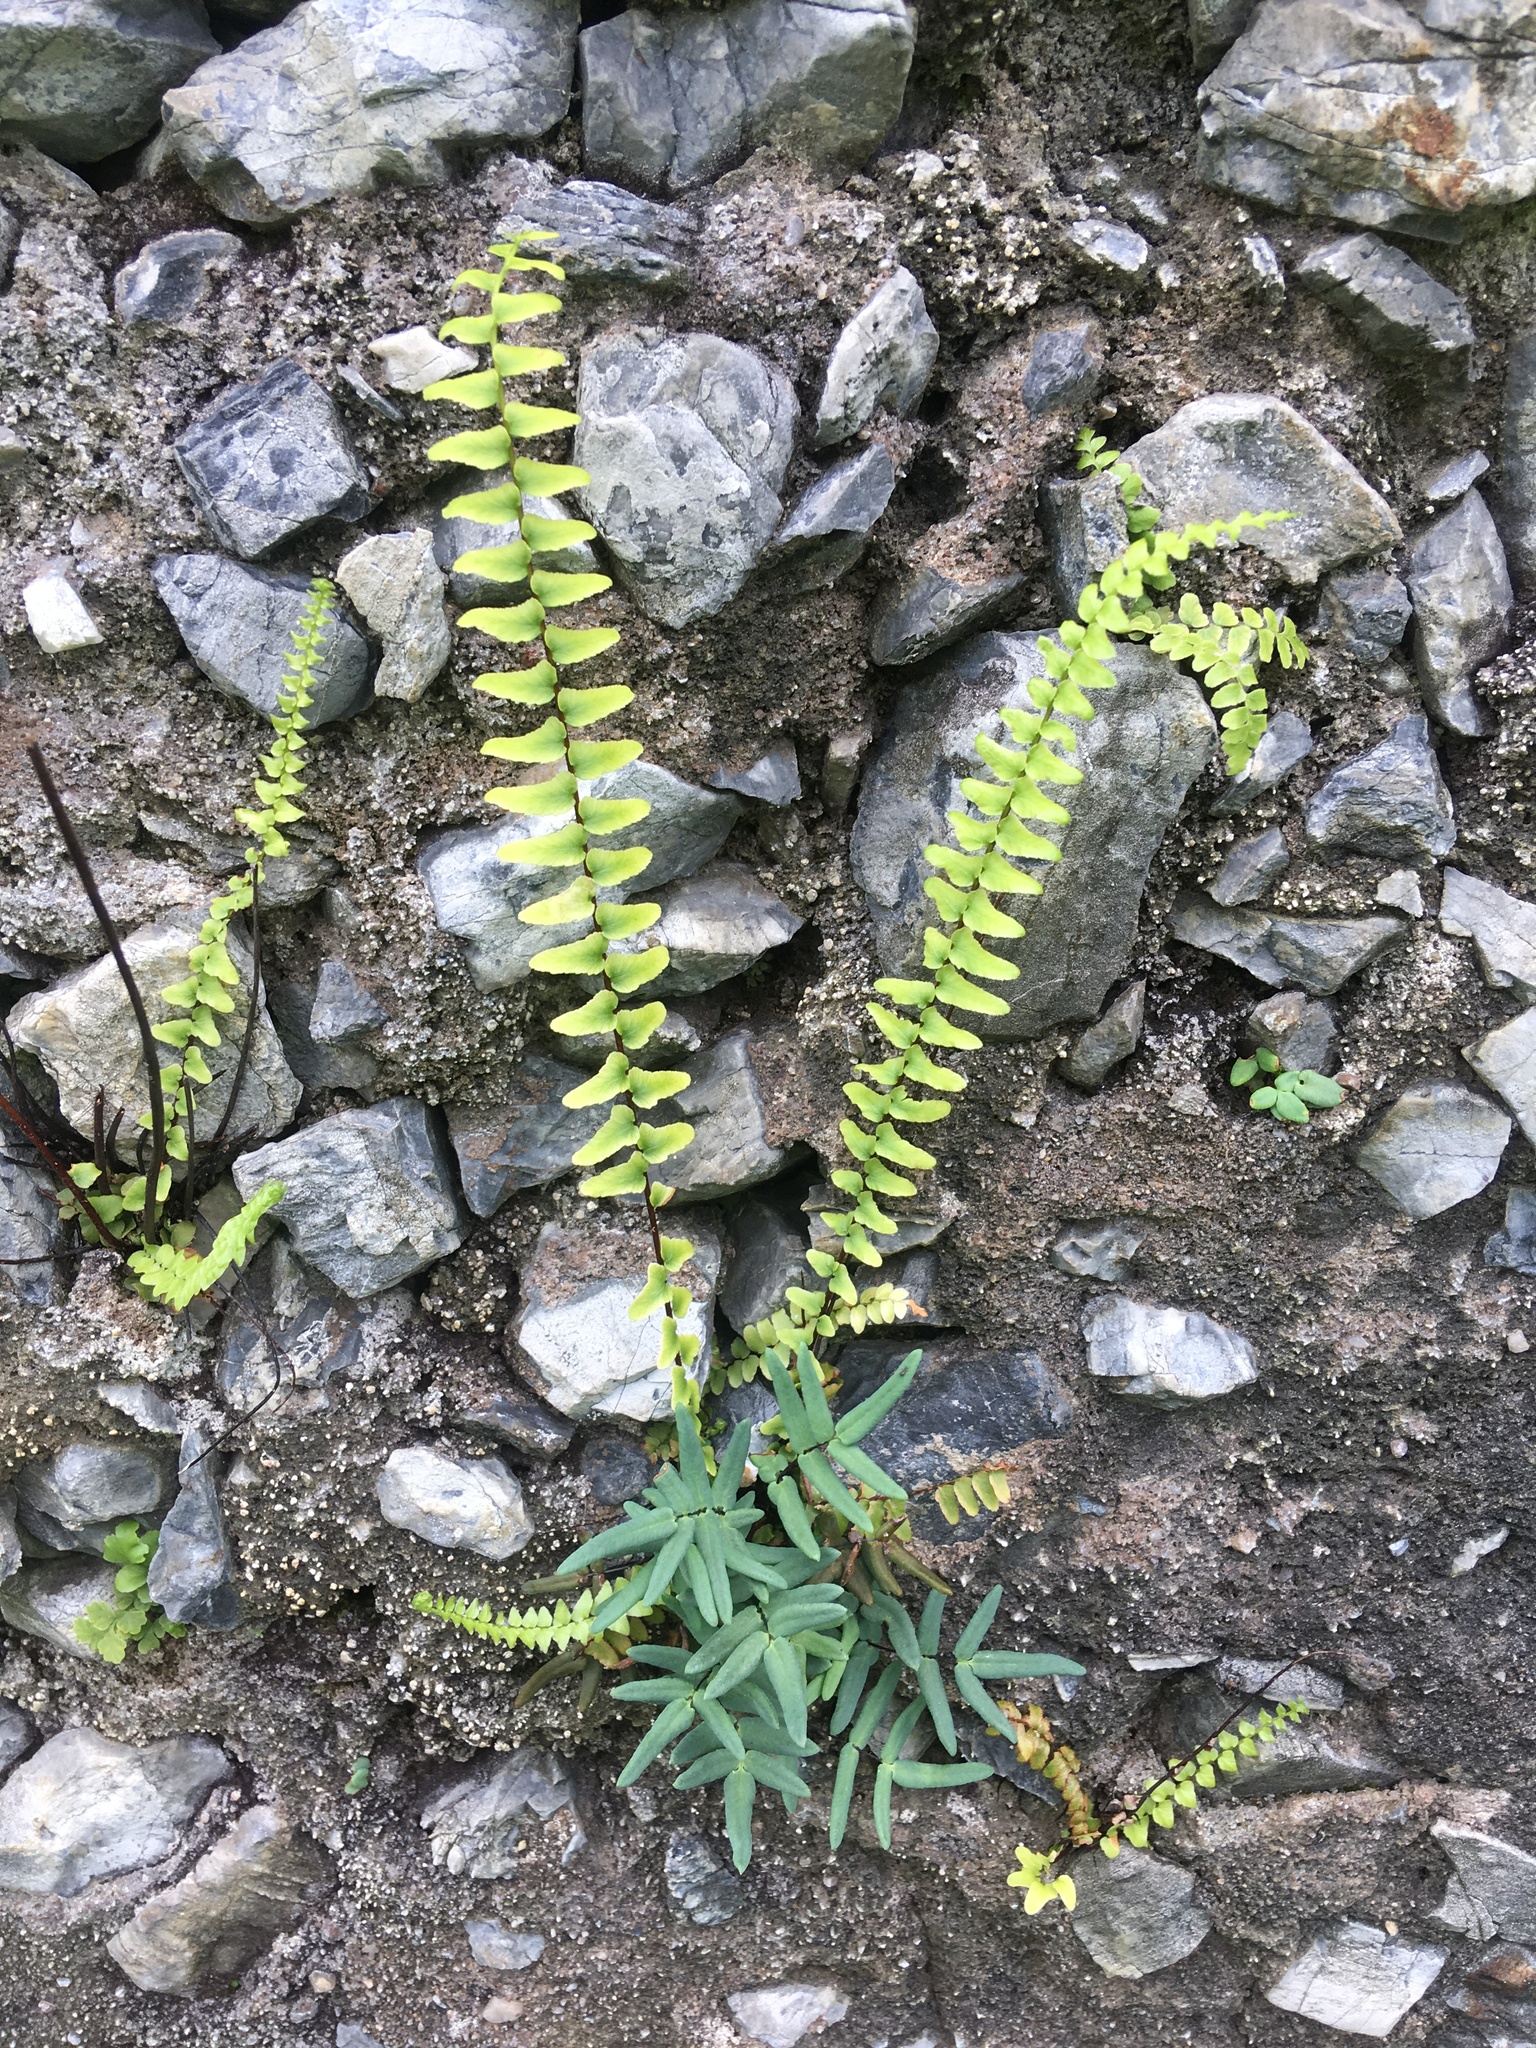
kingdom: Plantae
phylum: Tracheophyta
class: Polypodiopsida
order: Polypodiales
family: Pteridaceae
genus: Pellaea
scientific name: Pellaea glabella
